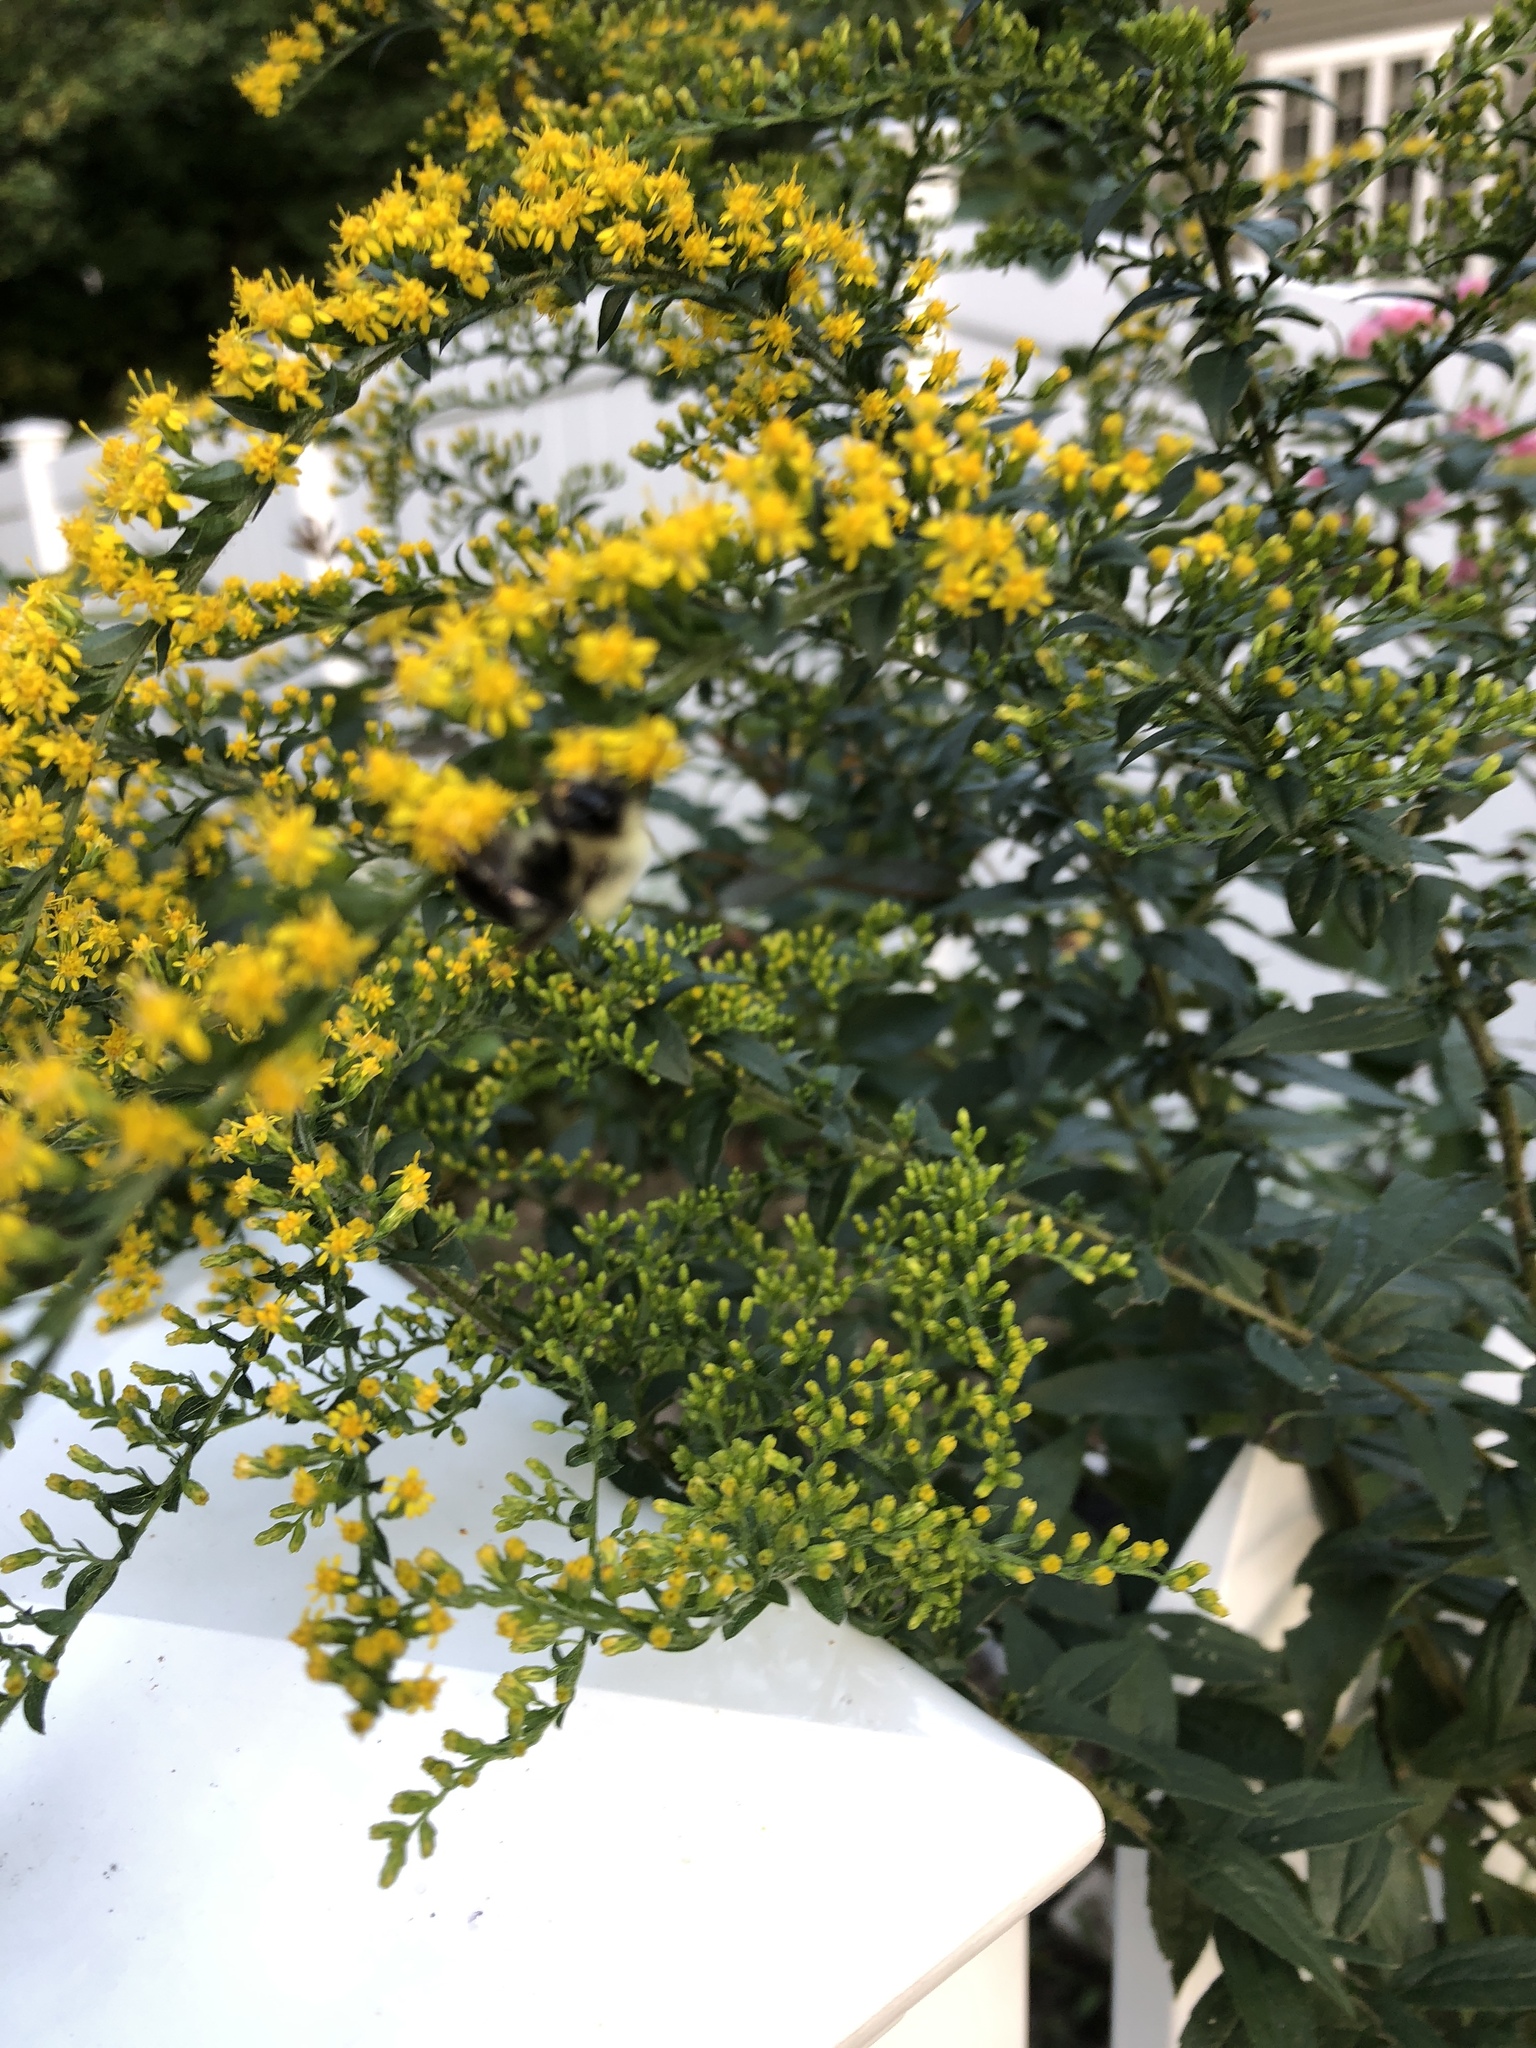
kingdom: Animalia
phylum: Arthropoda
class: Insecta
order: Hymenoptera
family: Apidae
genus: Bombus
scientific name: Bombus impatiens
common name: Common eastern bumble bee
